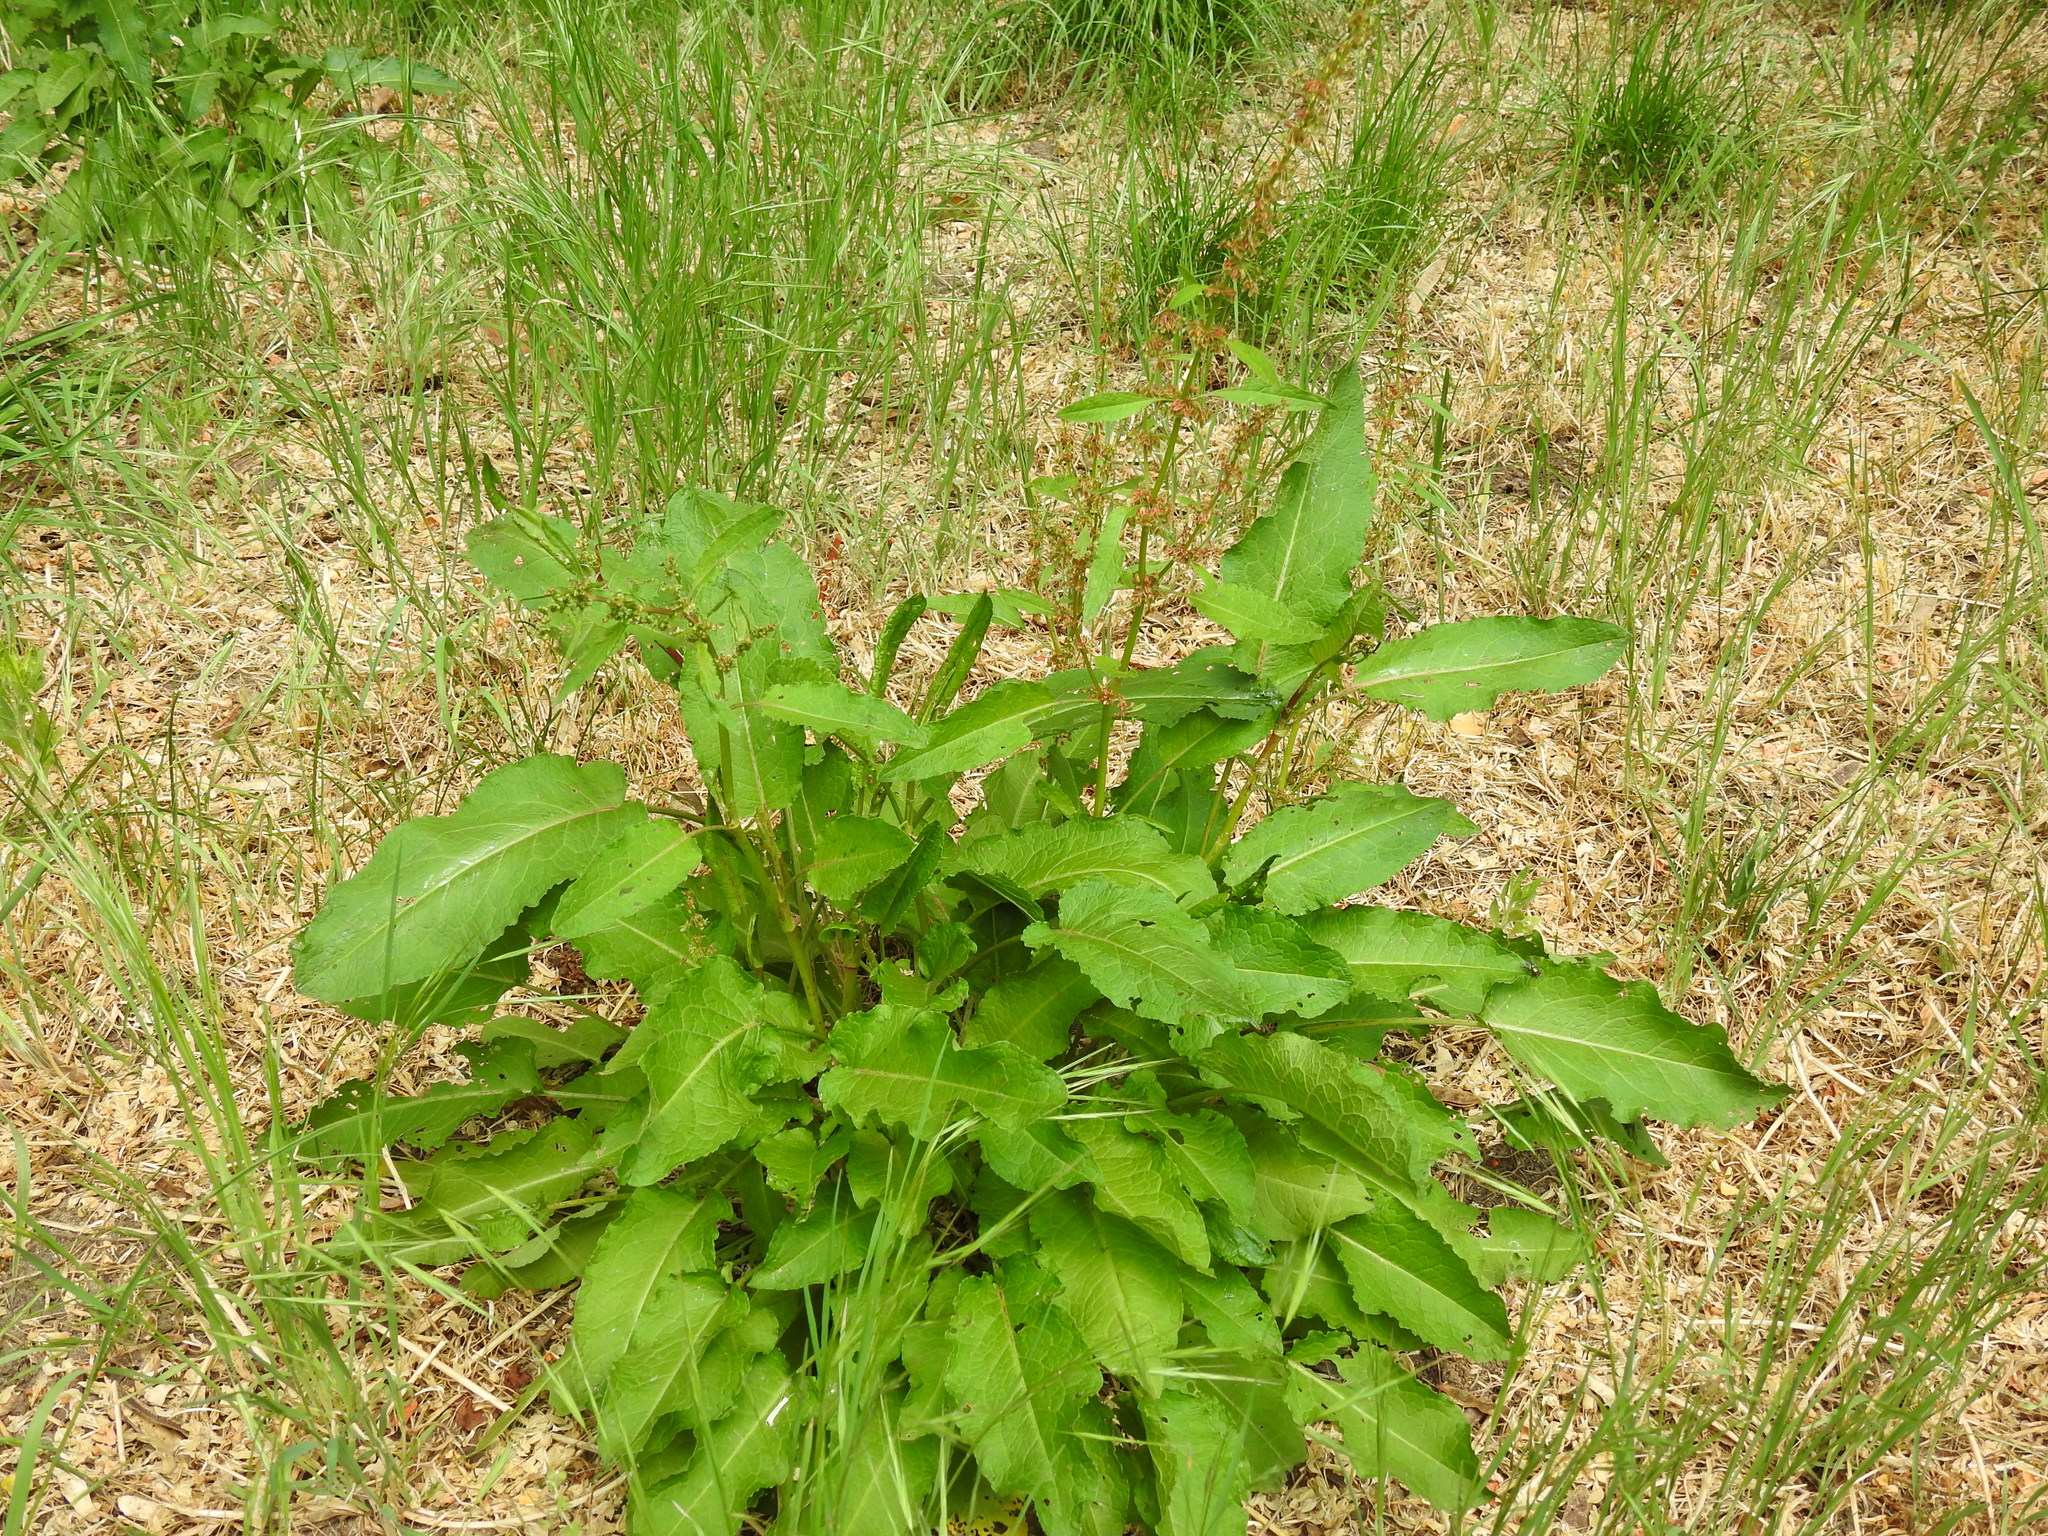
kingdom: Plantae
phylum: Tracheophyta
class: Magnoliopsida
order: Caryophyllales
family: Polygonaceae
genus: Rumex
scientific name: Rumex obtusifolius
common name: Bitter dock
